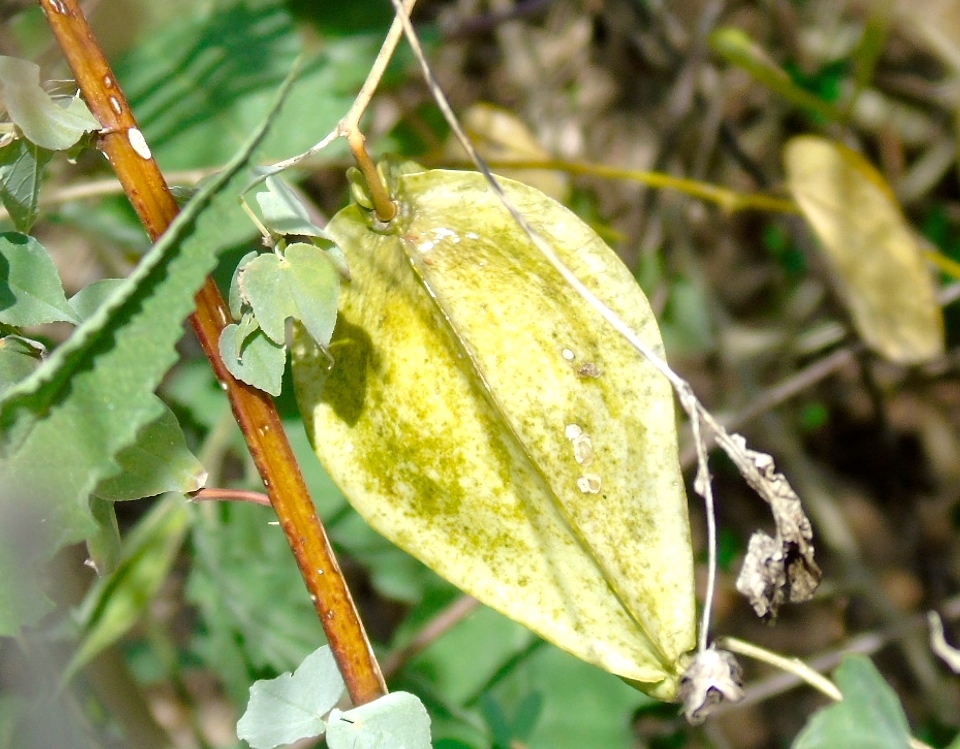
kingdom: Plantae
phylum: Tracheophyta
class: Magnoliopsida
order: Gentianales
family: Apocynaceae
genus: Gonolobus
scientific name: Gonolobus naturalistae
